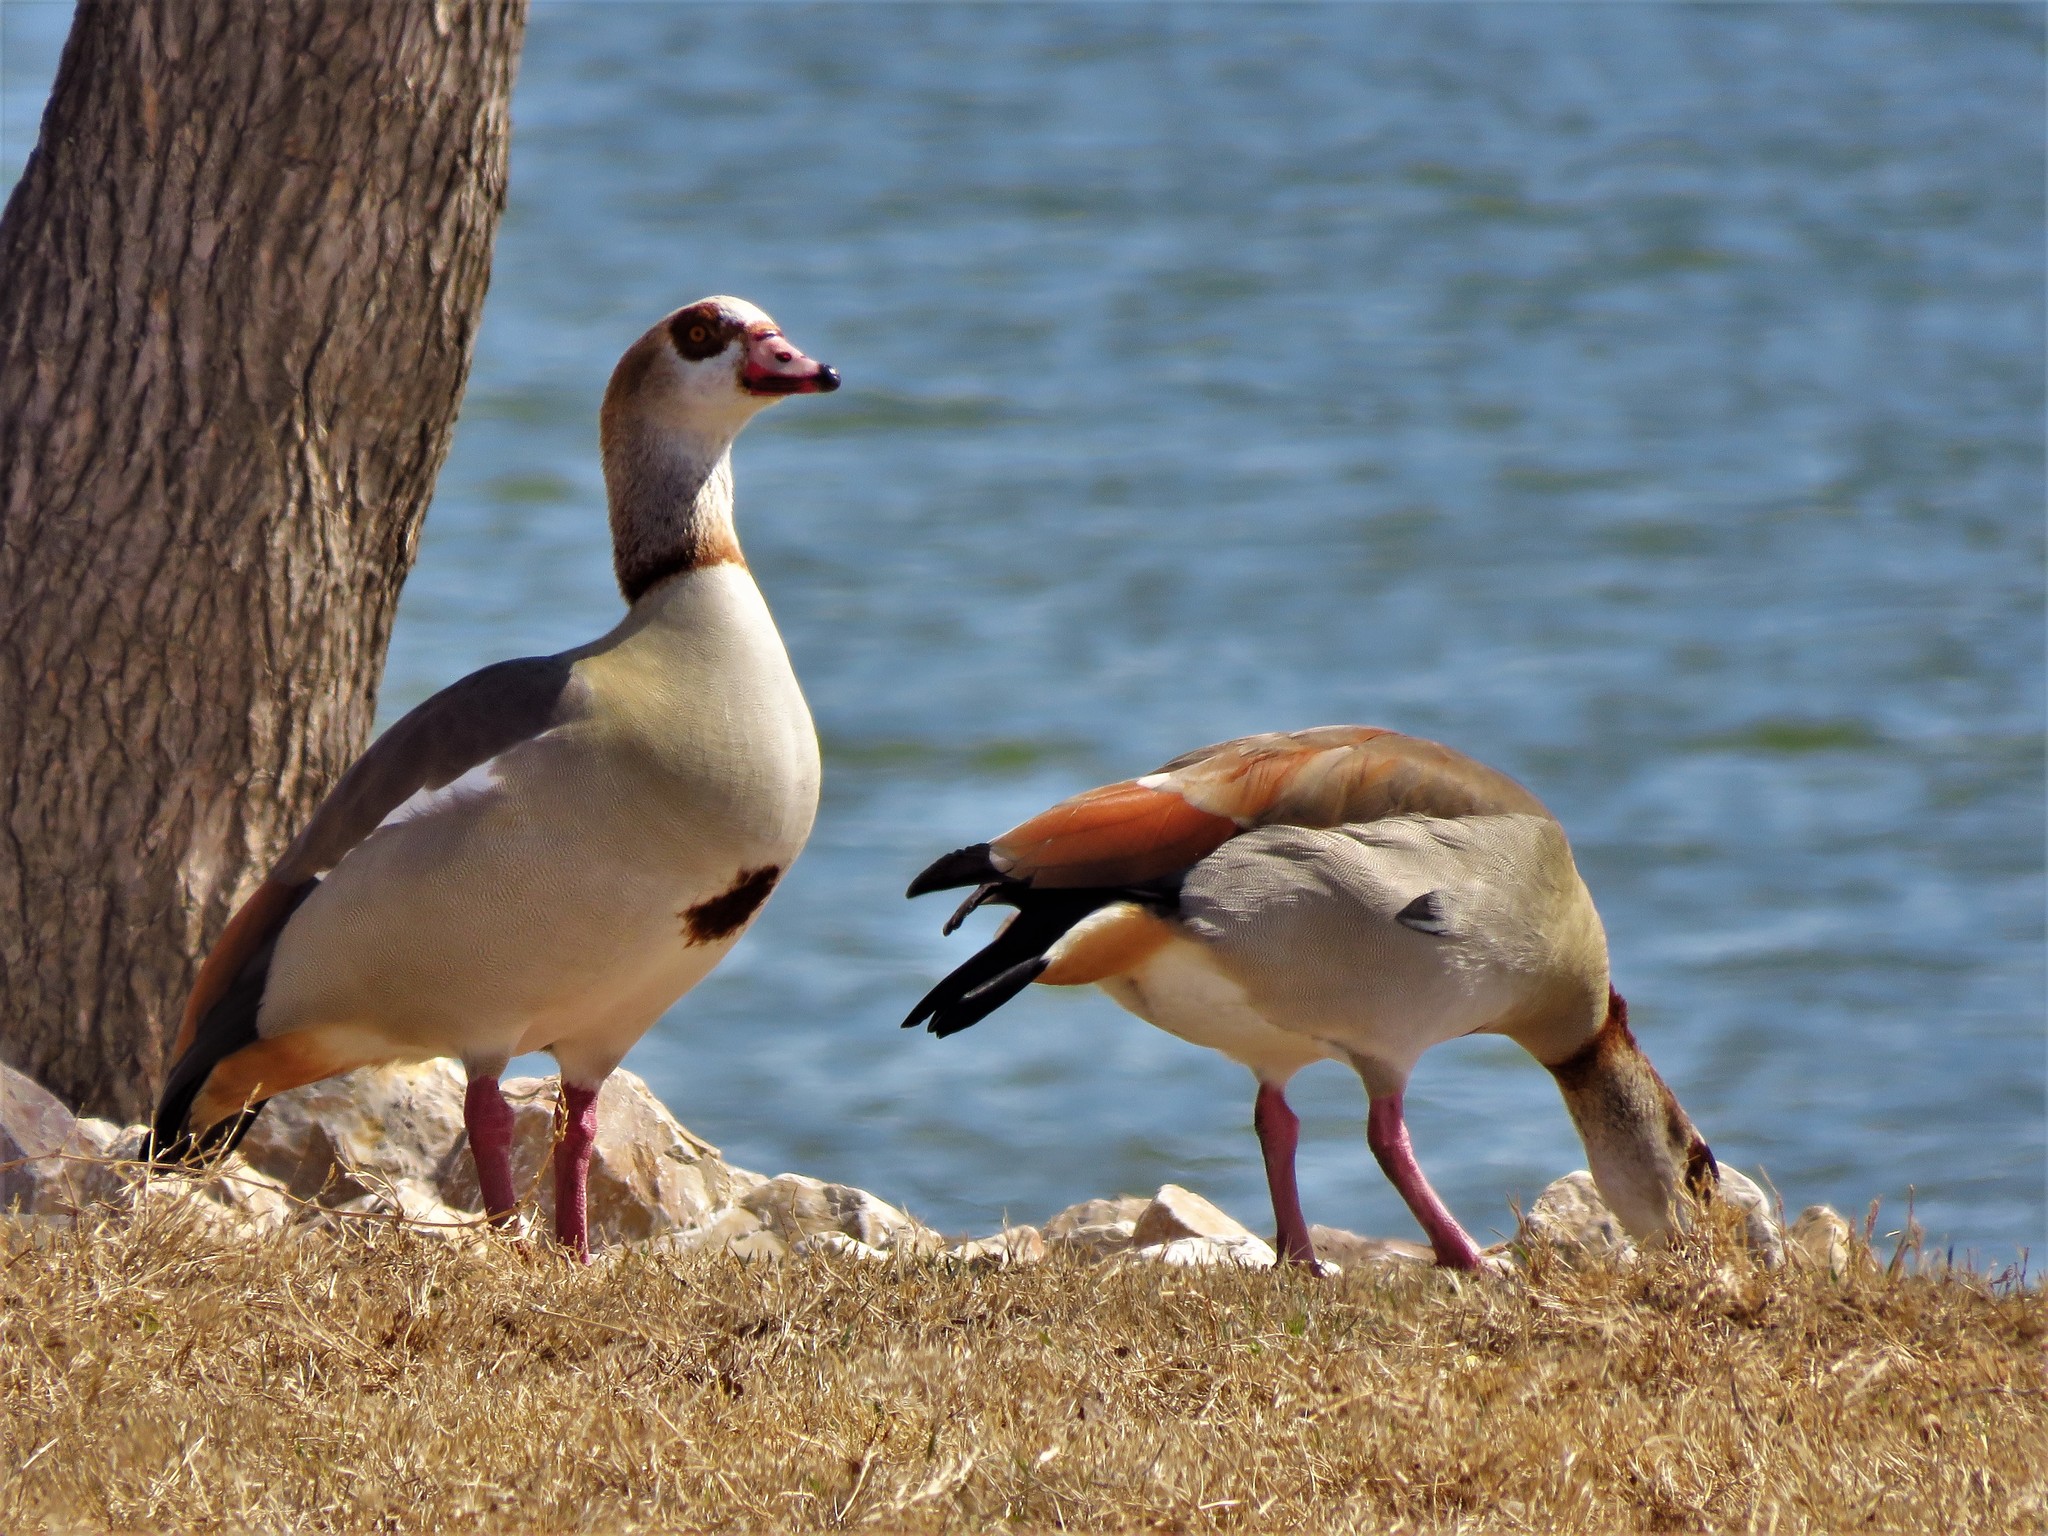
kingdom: Animalia
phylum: Chordata
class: Aves
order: Anseriformes
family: Anatidae
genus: Alopochen
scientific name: Alopochen aegyptiaca
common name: Egyptian goose
